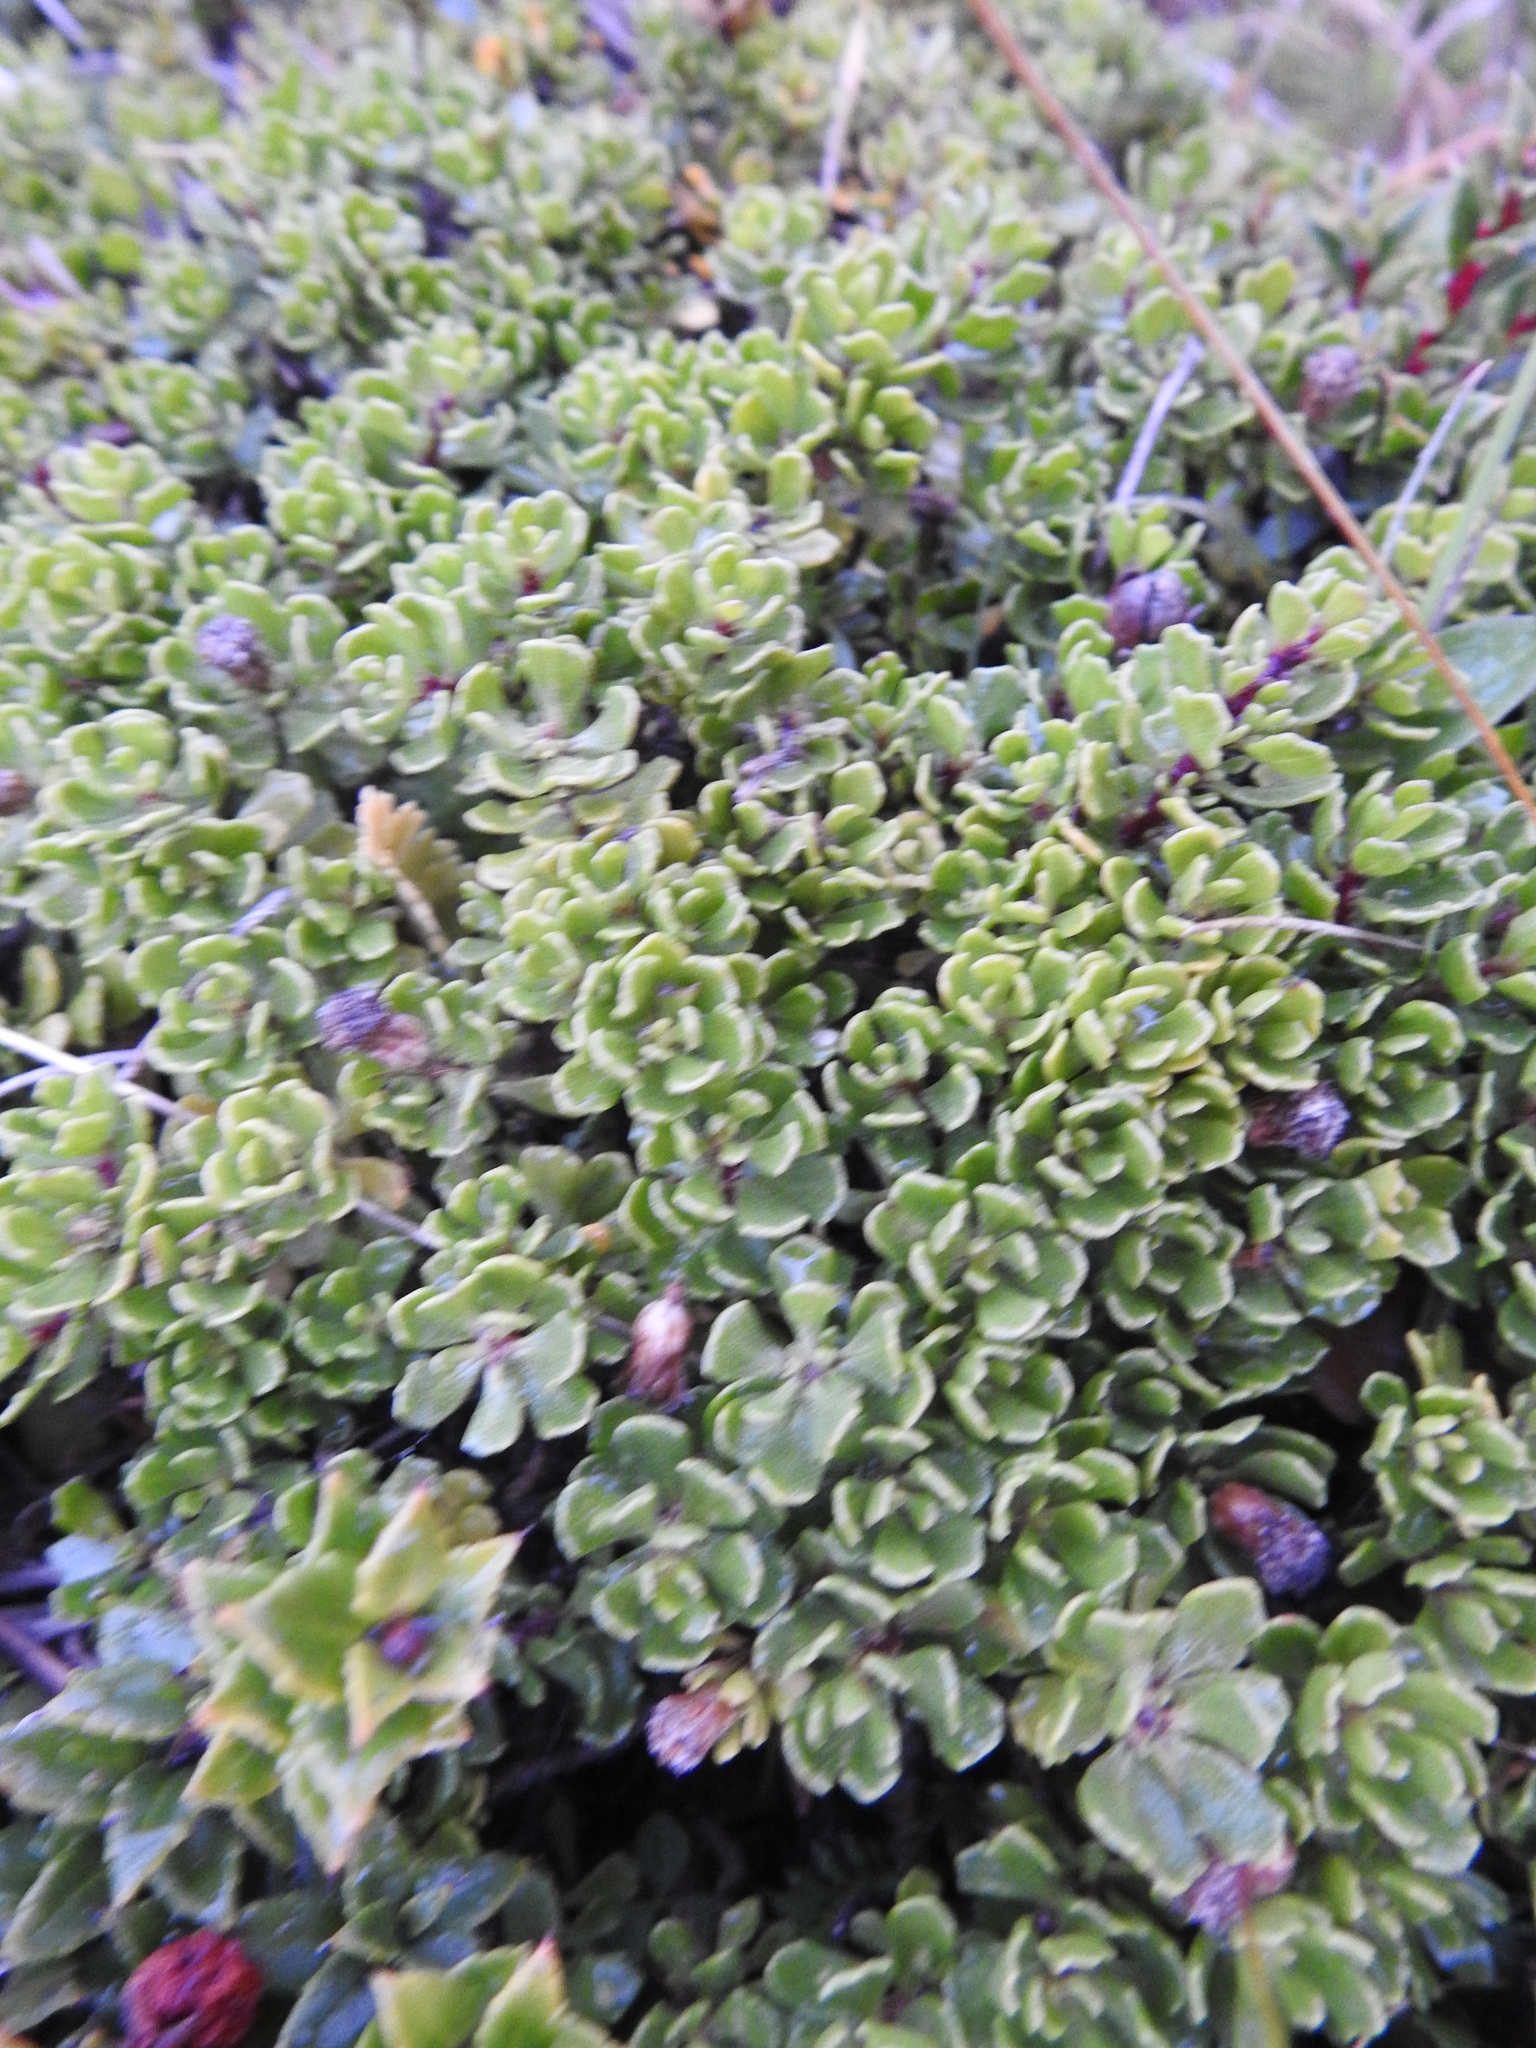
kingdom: Plantae
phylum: Tracheophyta
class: Magnoliopsida
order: Asterales
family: Asteraceae
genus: Baccharis
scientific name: Baccharis magellanica
